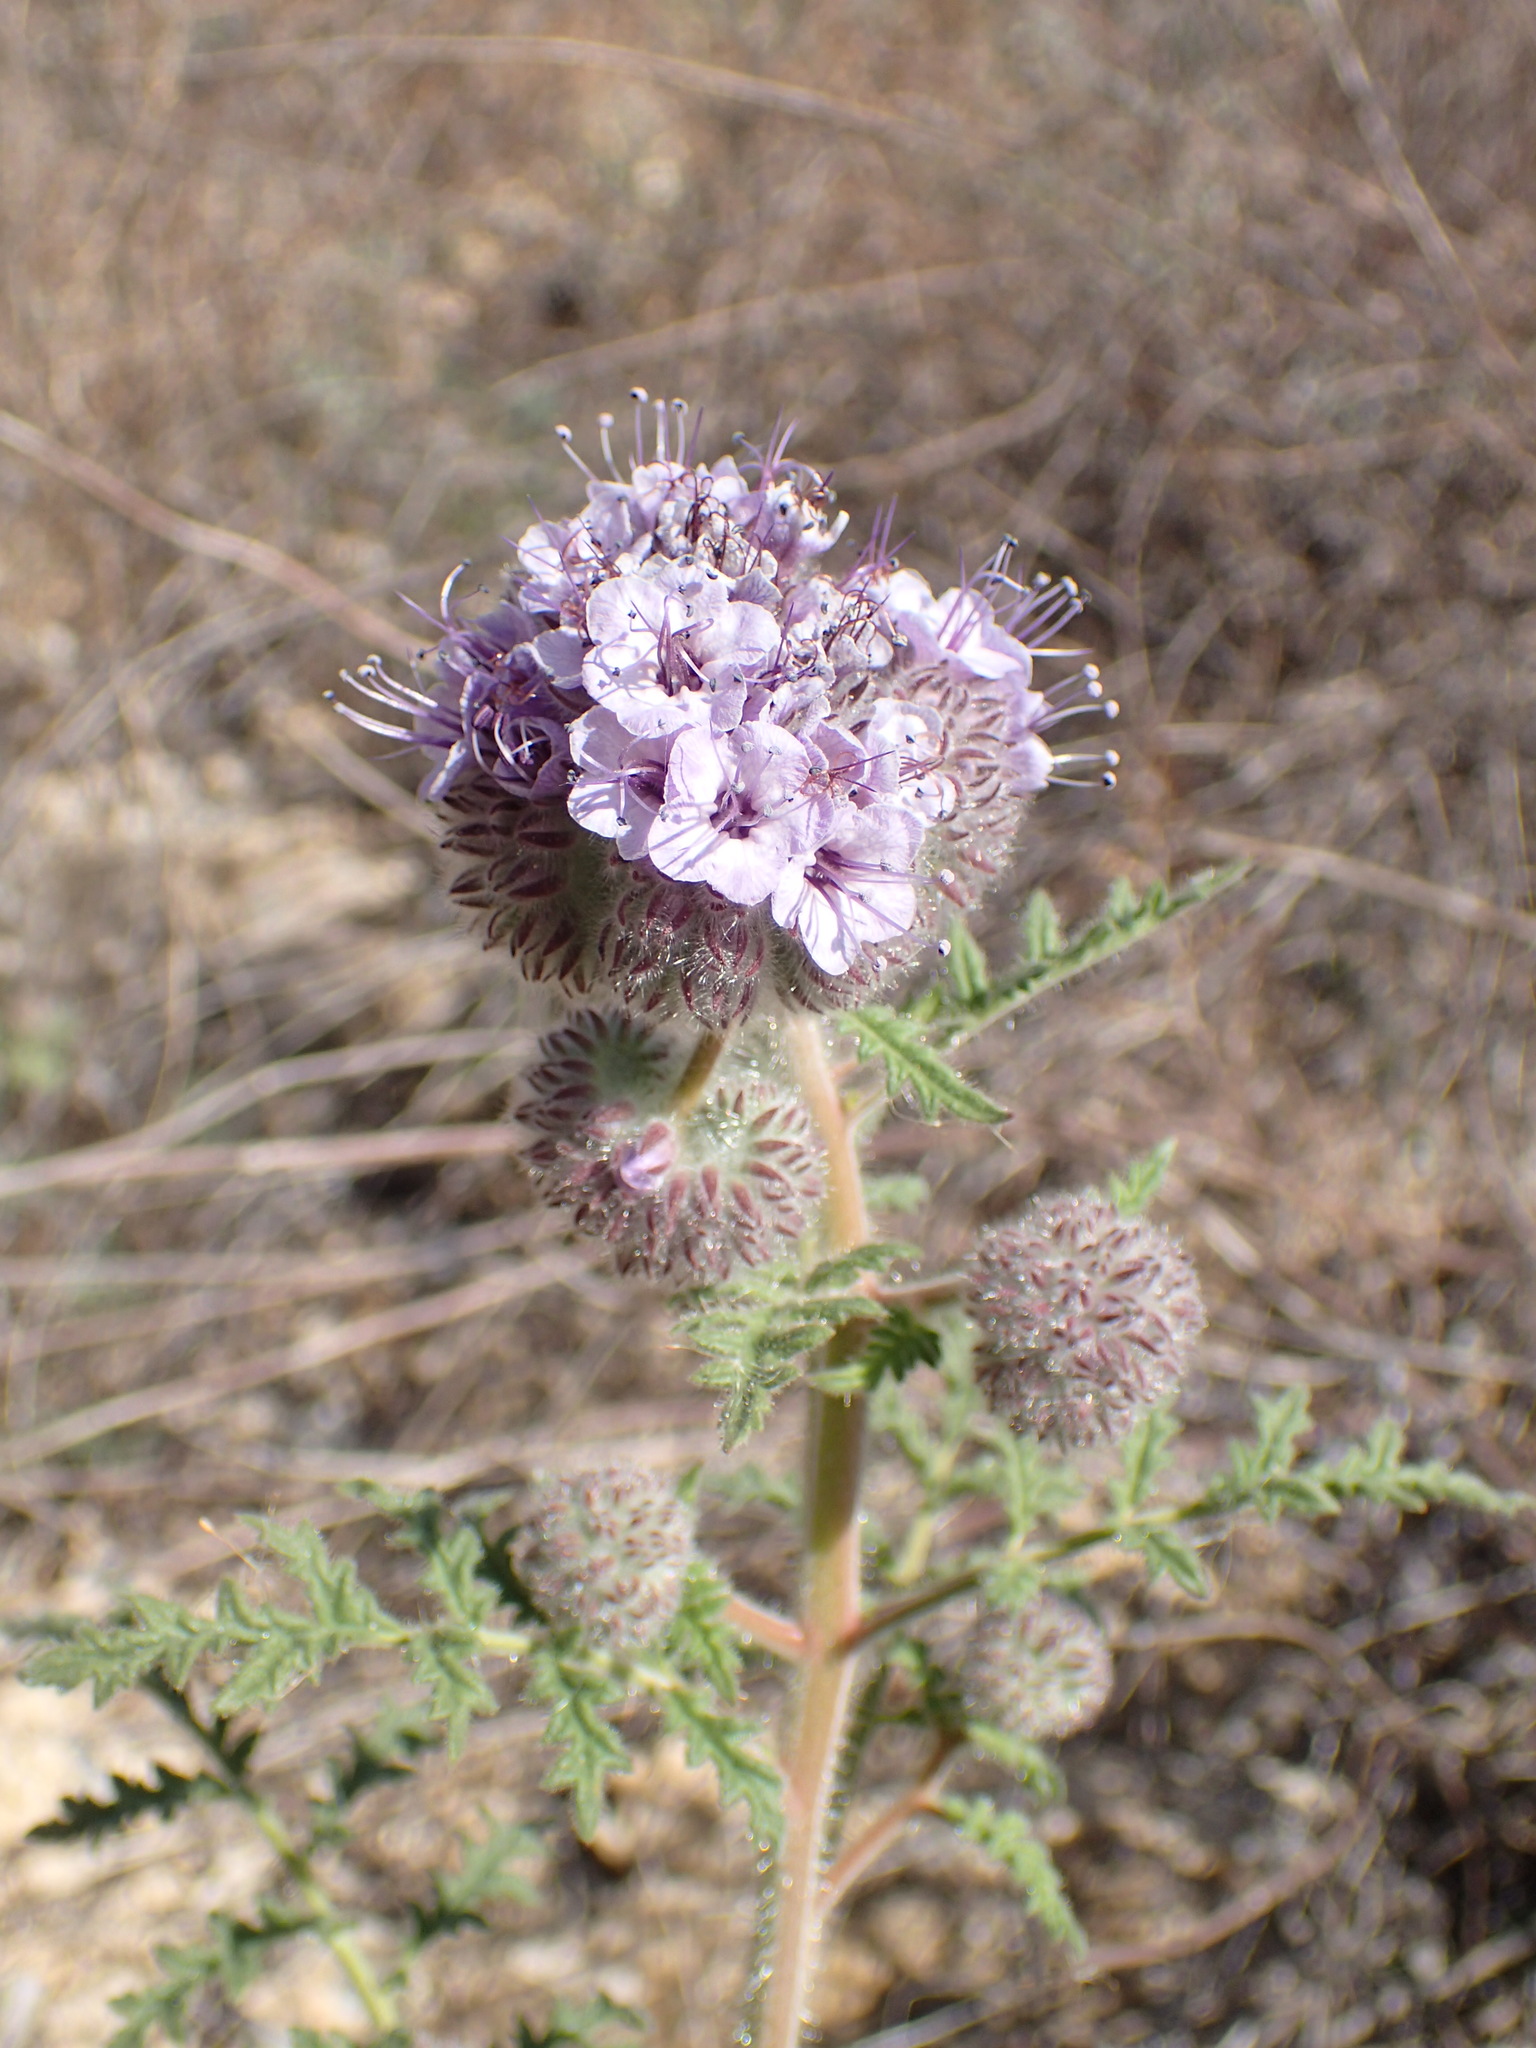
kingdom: Plantae
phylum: Tracheophyta
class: Magnoliopsida
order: Boraginales
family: Hydrophyllaceae
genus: Phacelia
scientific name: Phacelia hubbyi
